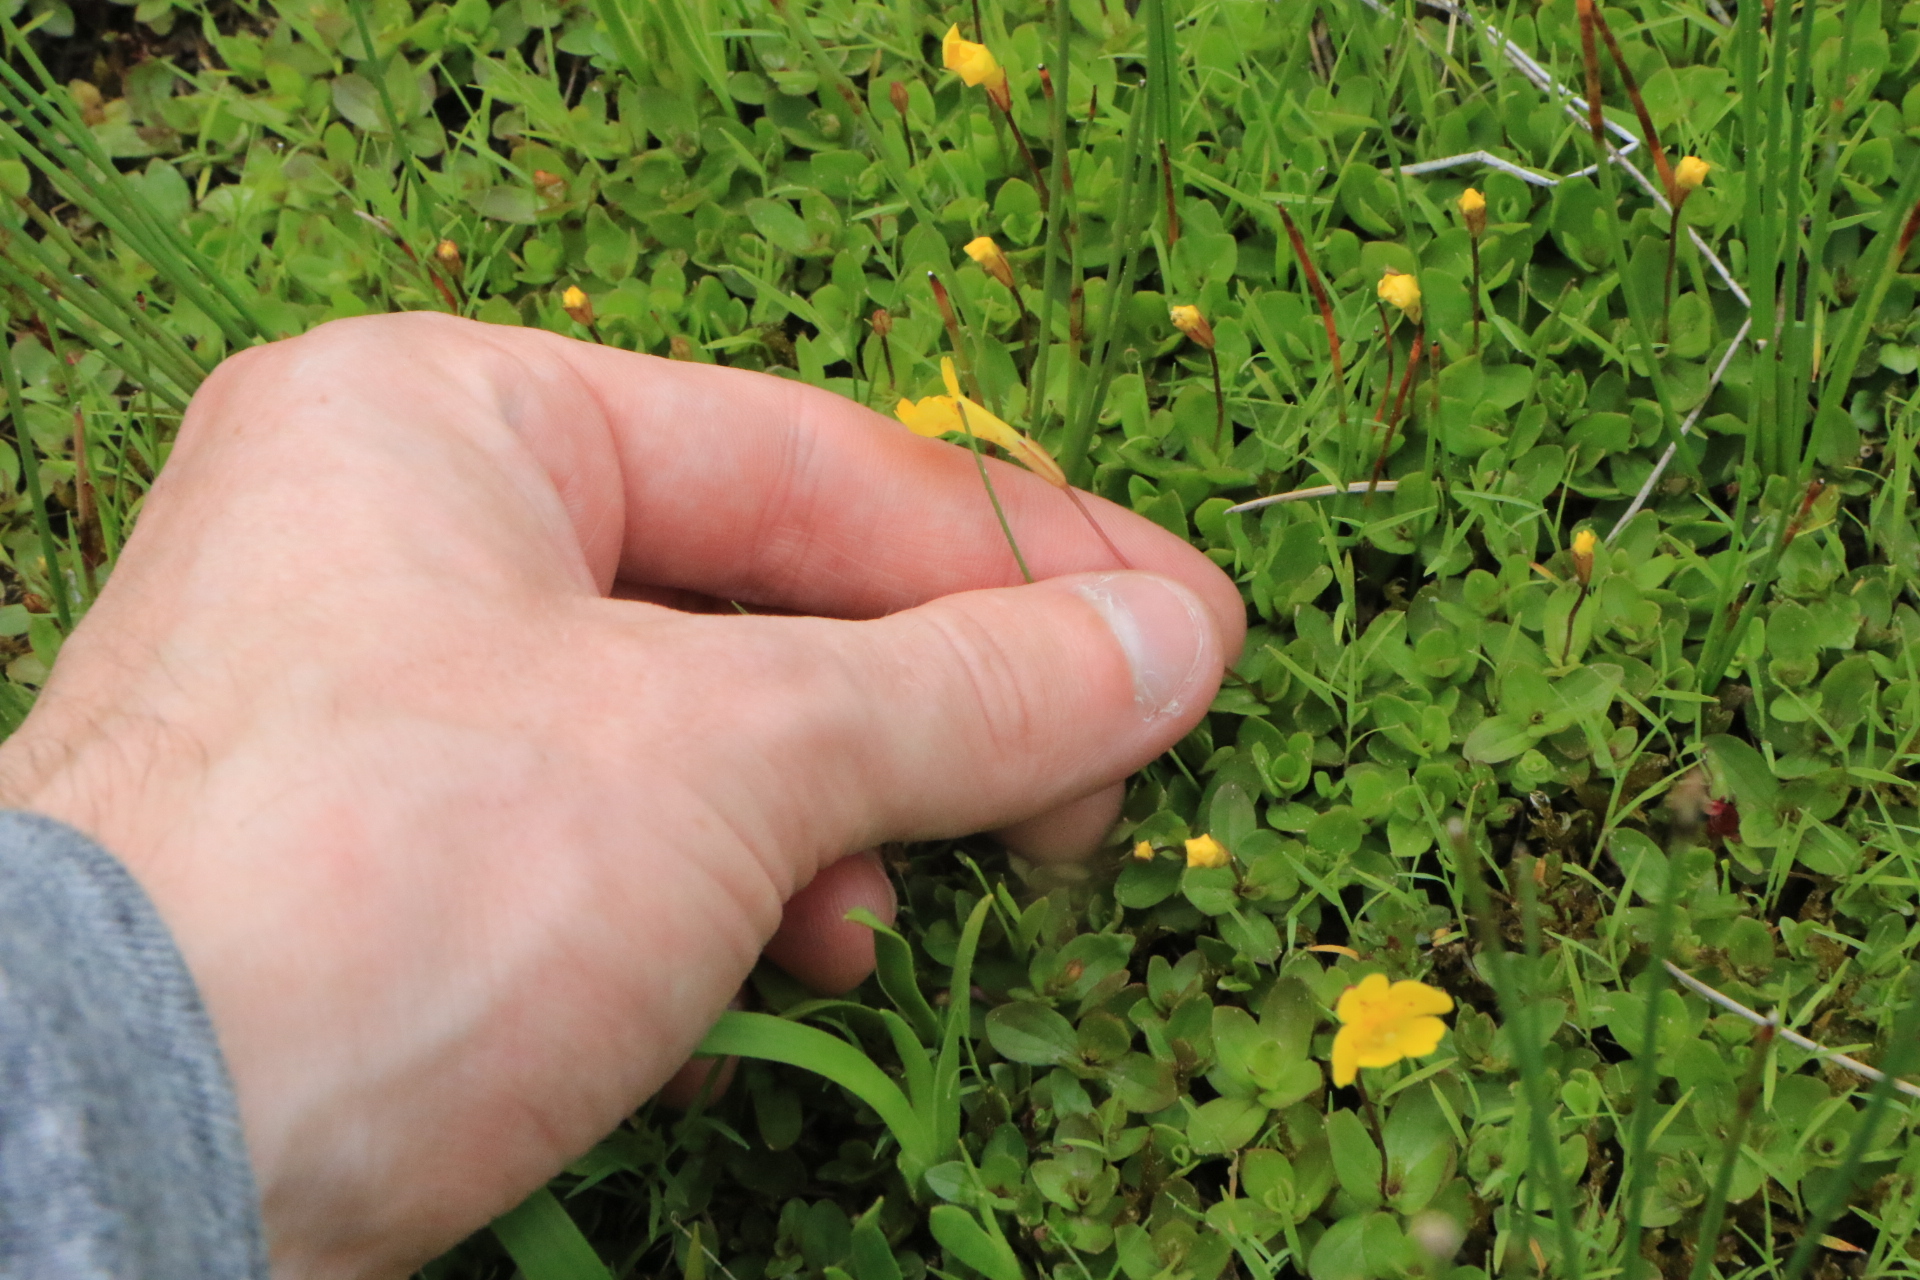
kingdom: Plantae
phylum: Tracheophyta
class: Magnoliopsida
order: Lamiales
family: Phrymaceae
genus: Erythranthe
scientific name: Erythranthe primuloides
